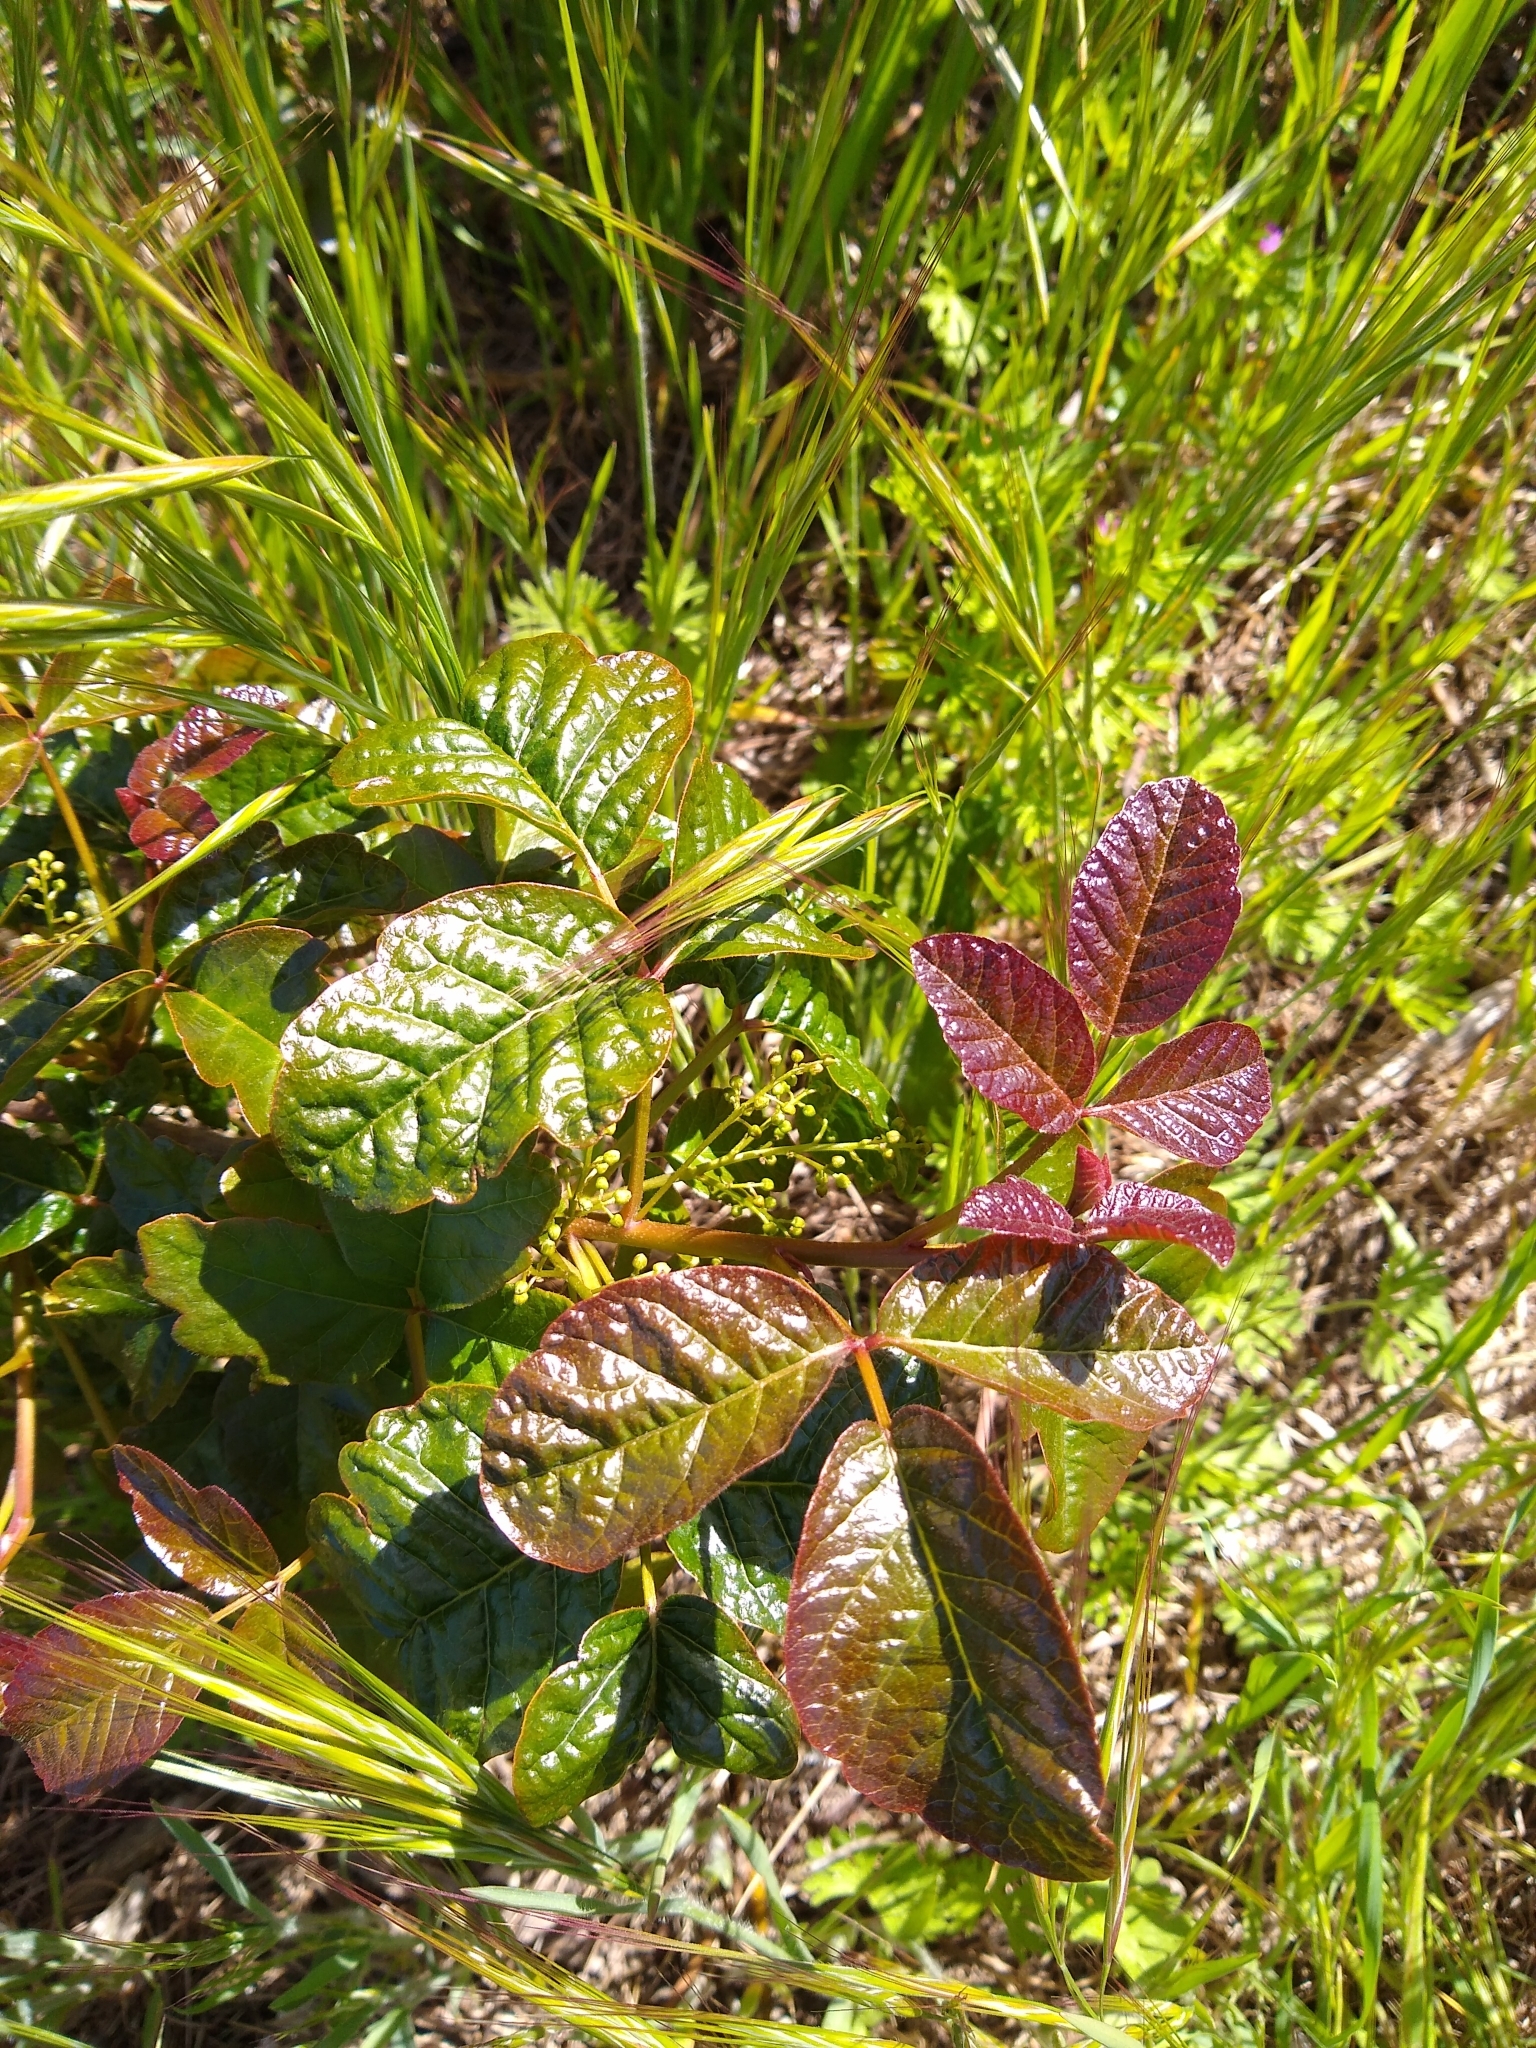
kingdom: Plantae
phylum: Tracheophyta
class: Magnoliopsida
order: Sapindales
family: Anacardiaceae
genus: Toxicodendron
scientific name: Toxicodendron diversilobum
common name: Pacific poison-oak
